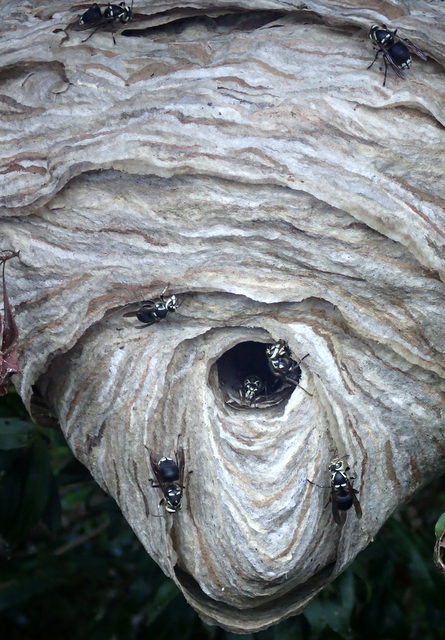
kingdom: Animalia
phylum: Arthropoda
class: Insecta
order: Hymenoptera
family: Vespidae
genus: Dolichovespula
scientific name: Dolichovespula maculata
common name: Bald-faced hornet
